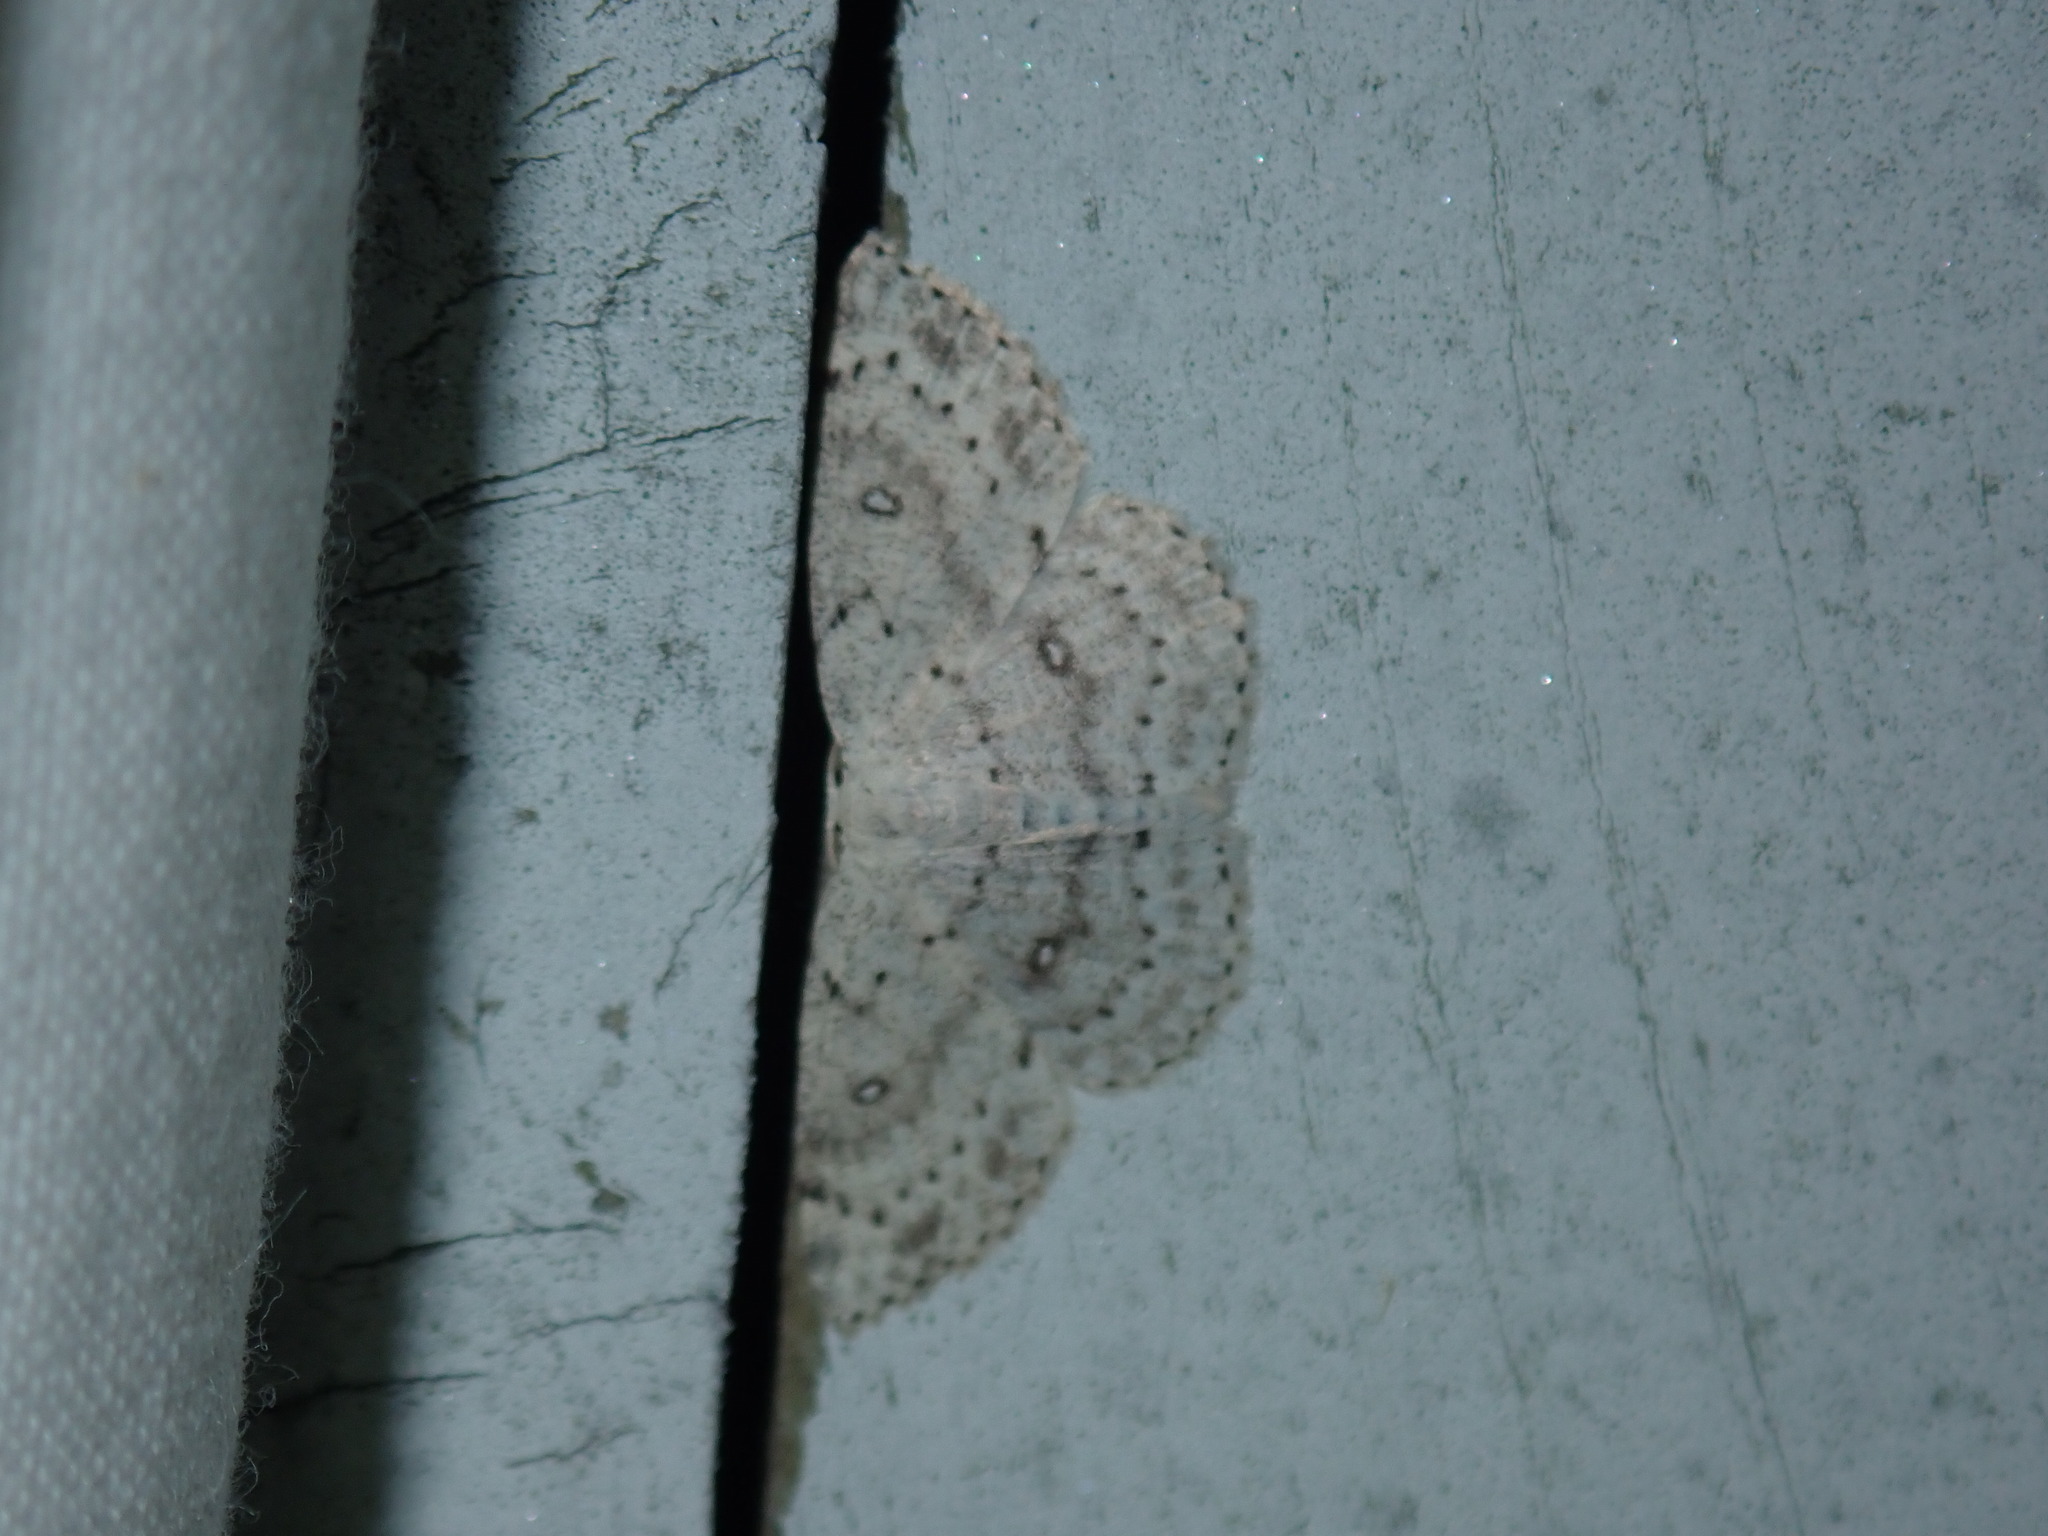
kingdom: Animalia
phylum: Arthropoda
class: Insecta
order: Lepidoptera
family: Geometridae
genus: Cyclophora
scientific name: Cyclophora pendulinaria
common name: Sweet fern geometer
